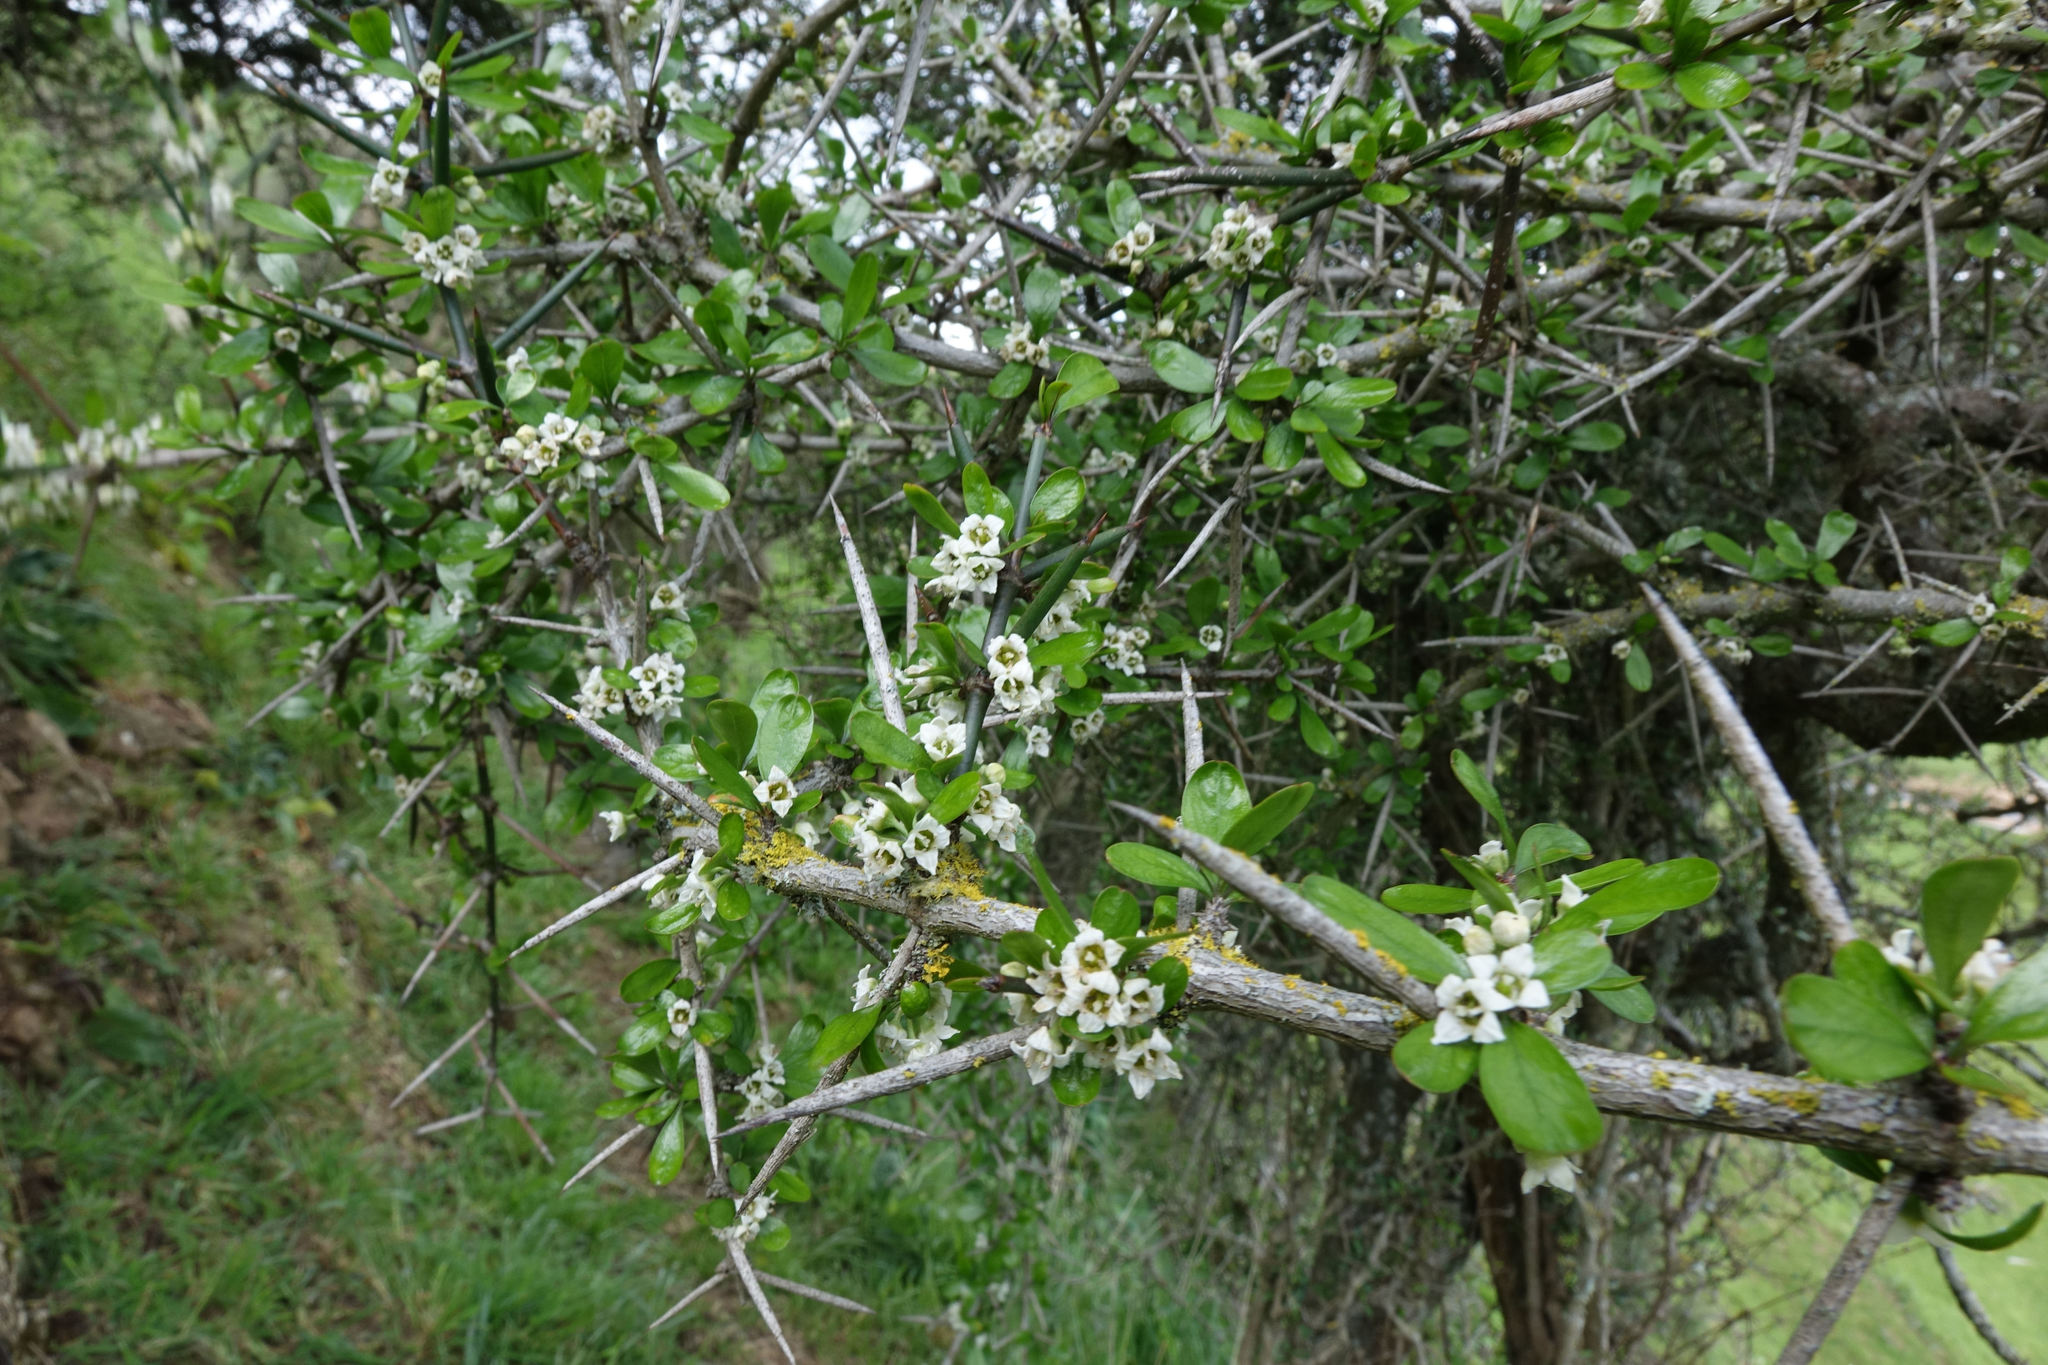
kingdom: Plantae
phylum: Tracheophyta
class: Magnoliopsida
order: Rosales
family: Rhamnaceae
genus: Discaria
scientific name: Discaria toumatou
